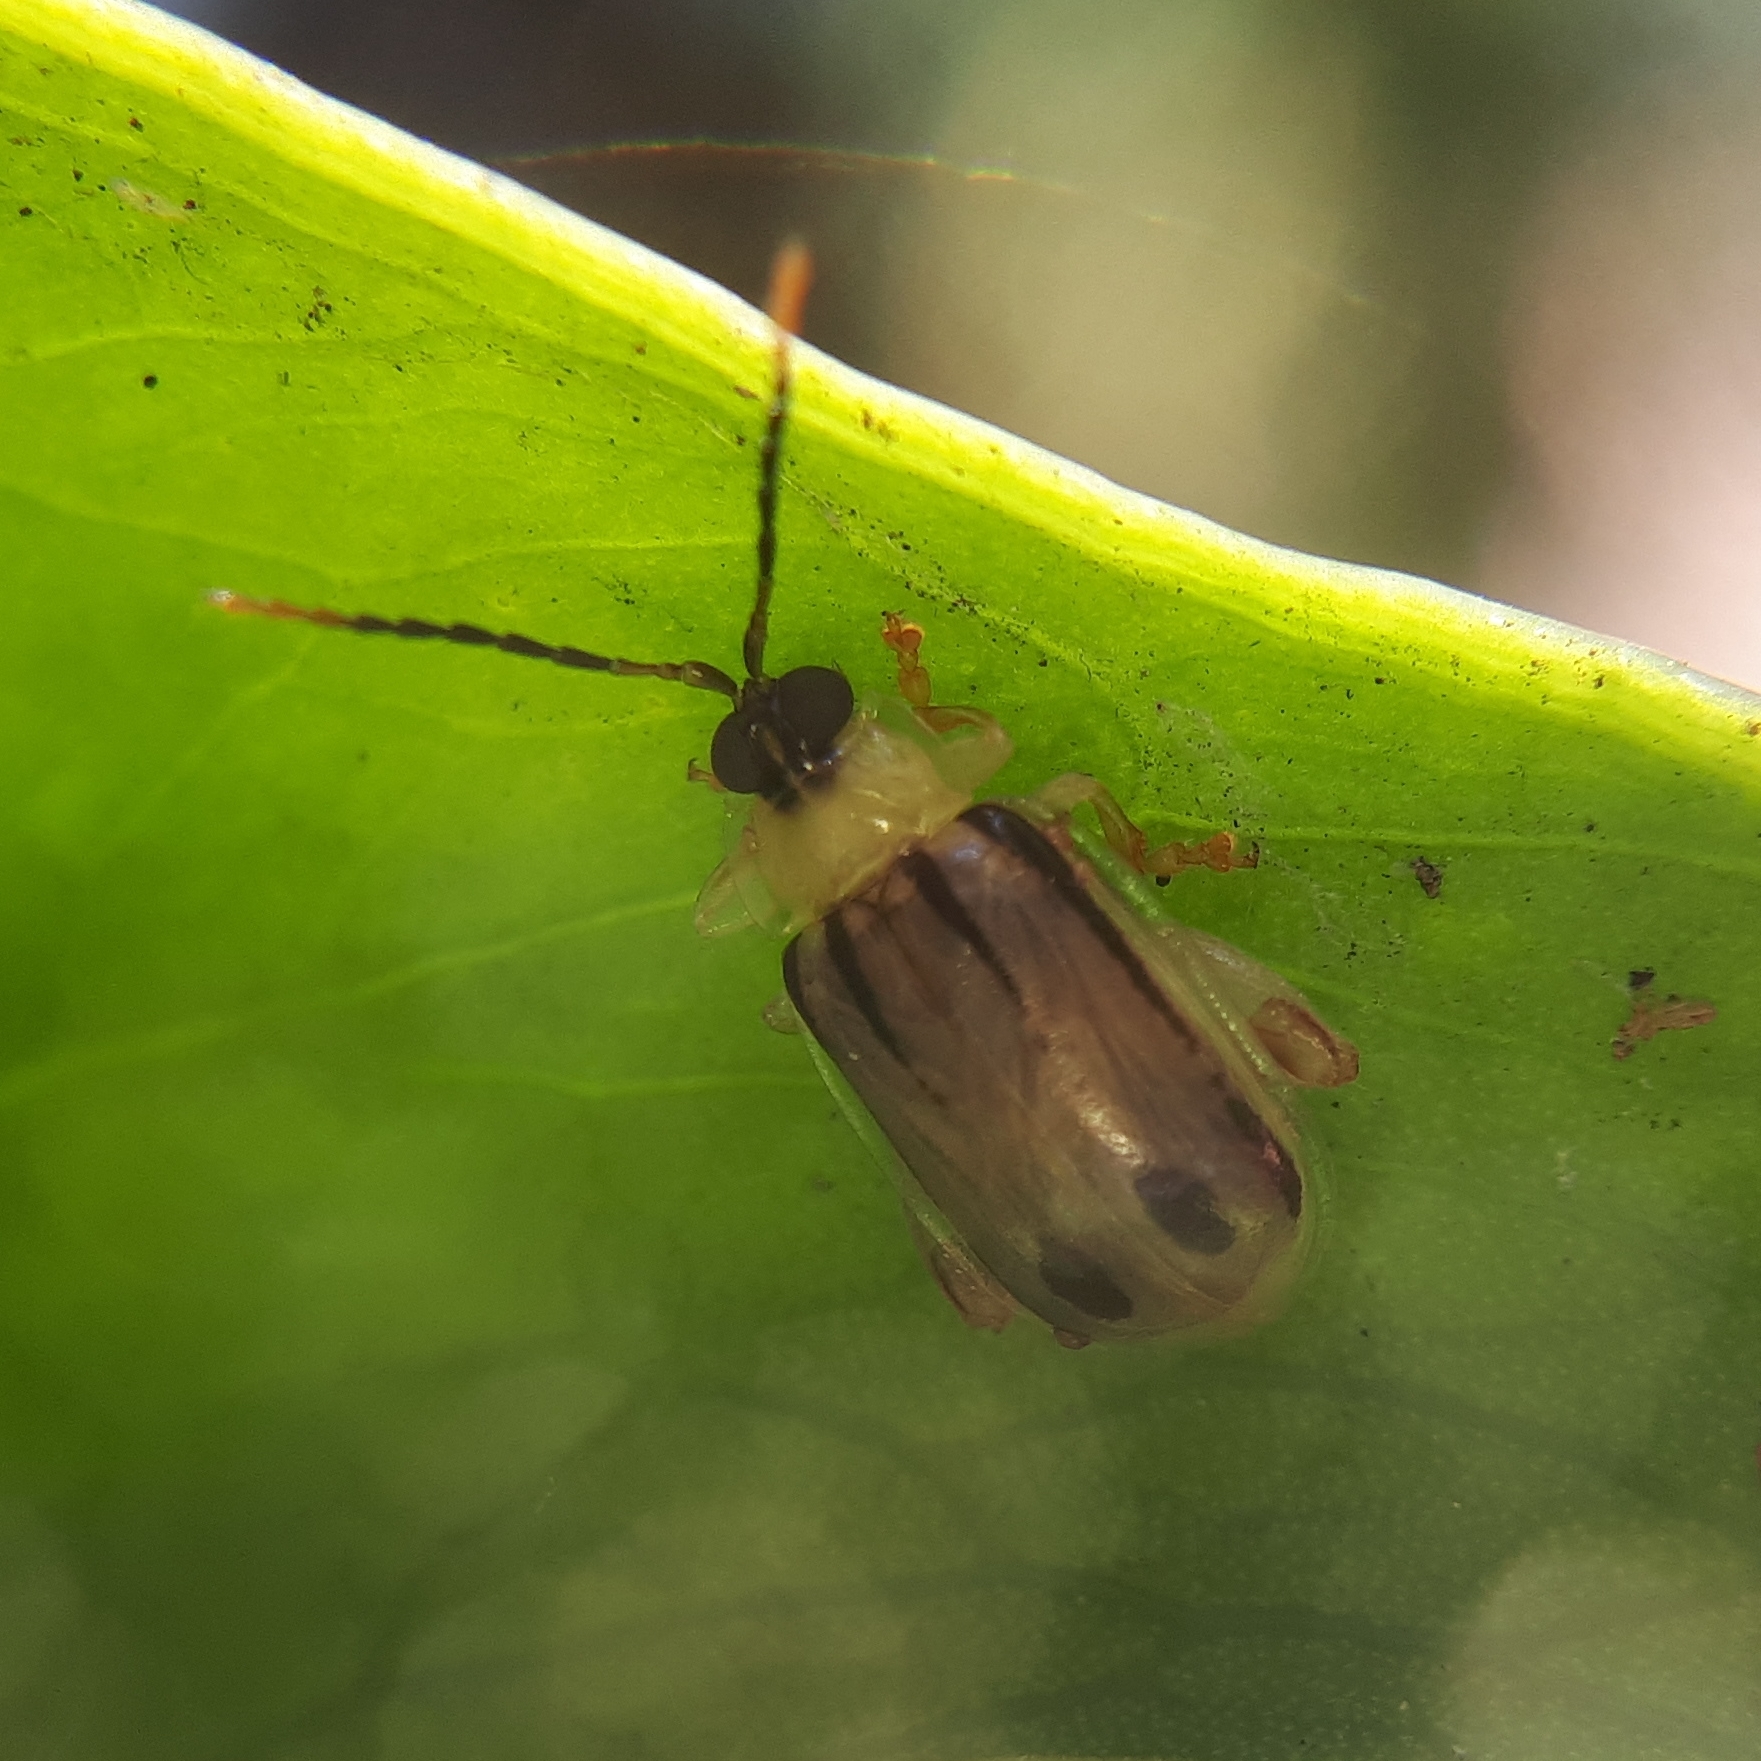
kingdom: Animalia
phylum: Arthropoda
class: Insecta
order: Coleoptera
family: Chrysomelidae
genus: Walterianella
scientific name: Walterianella
